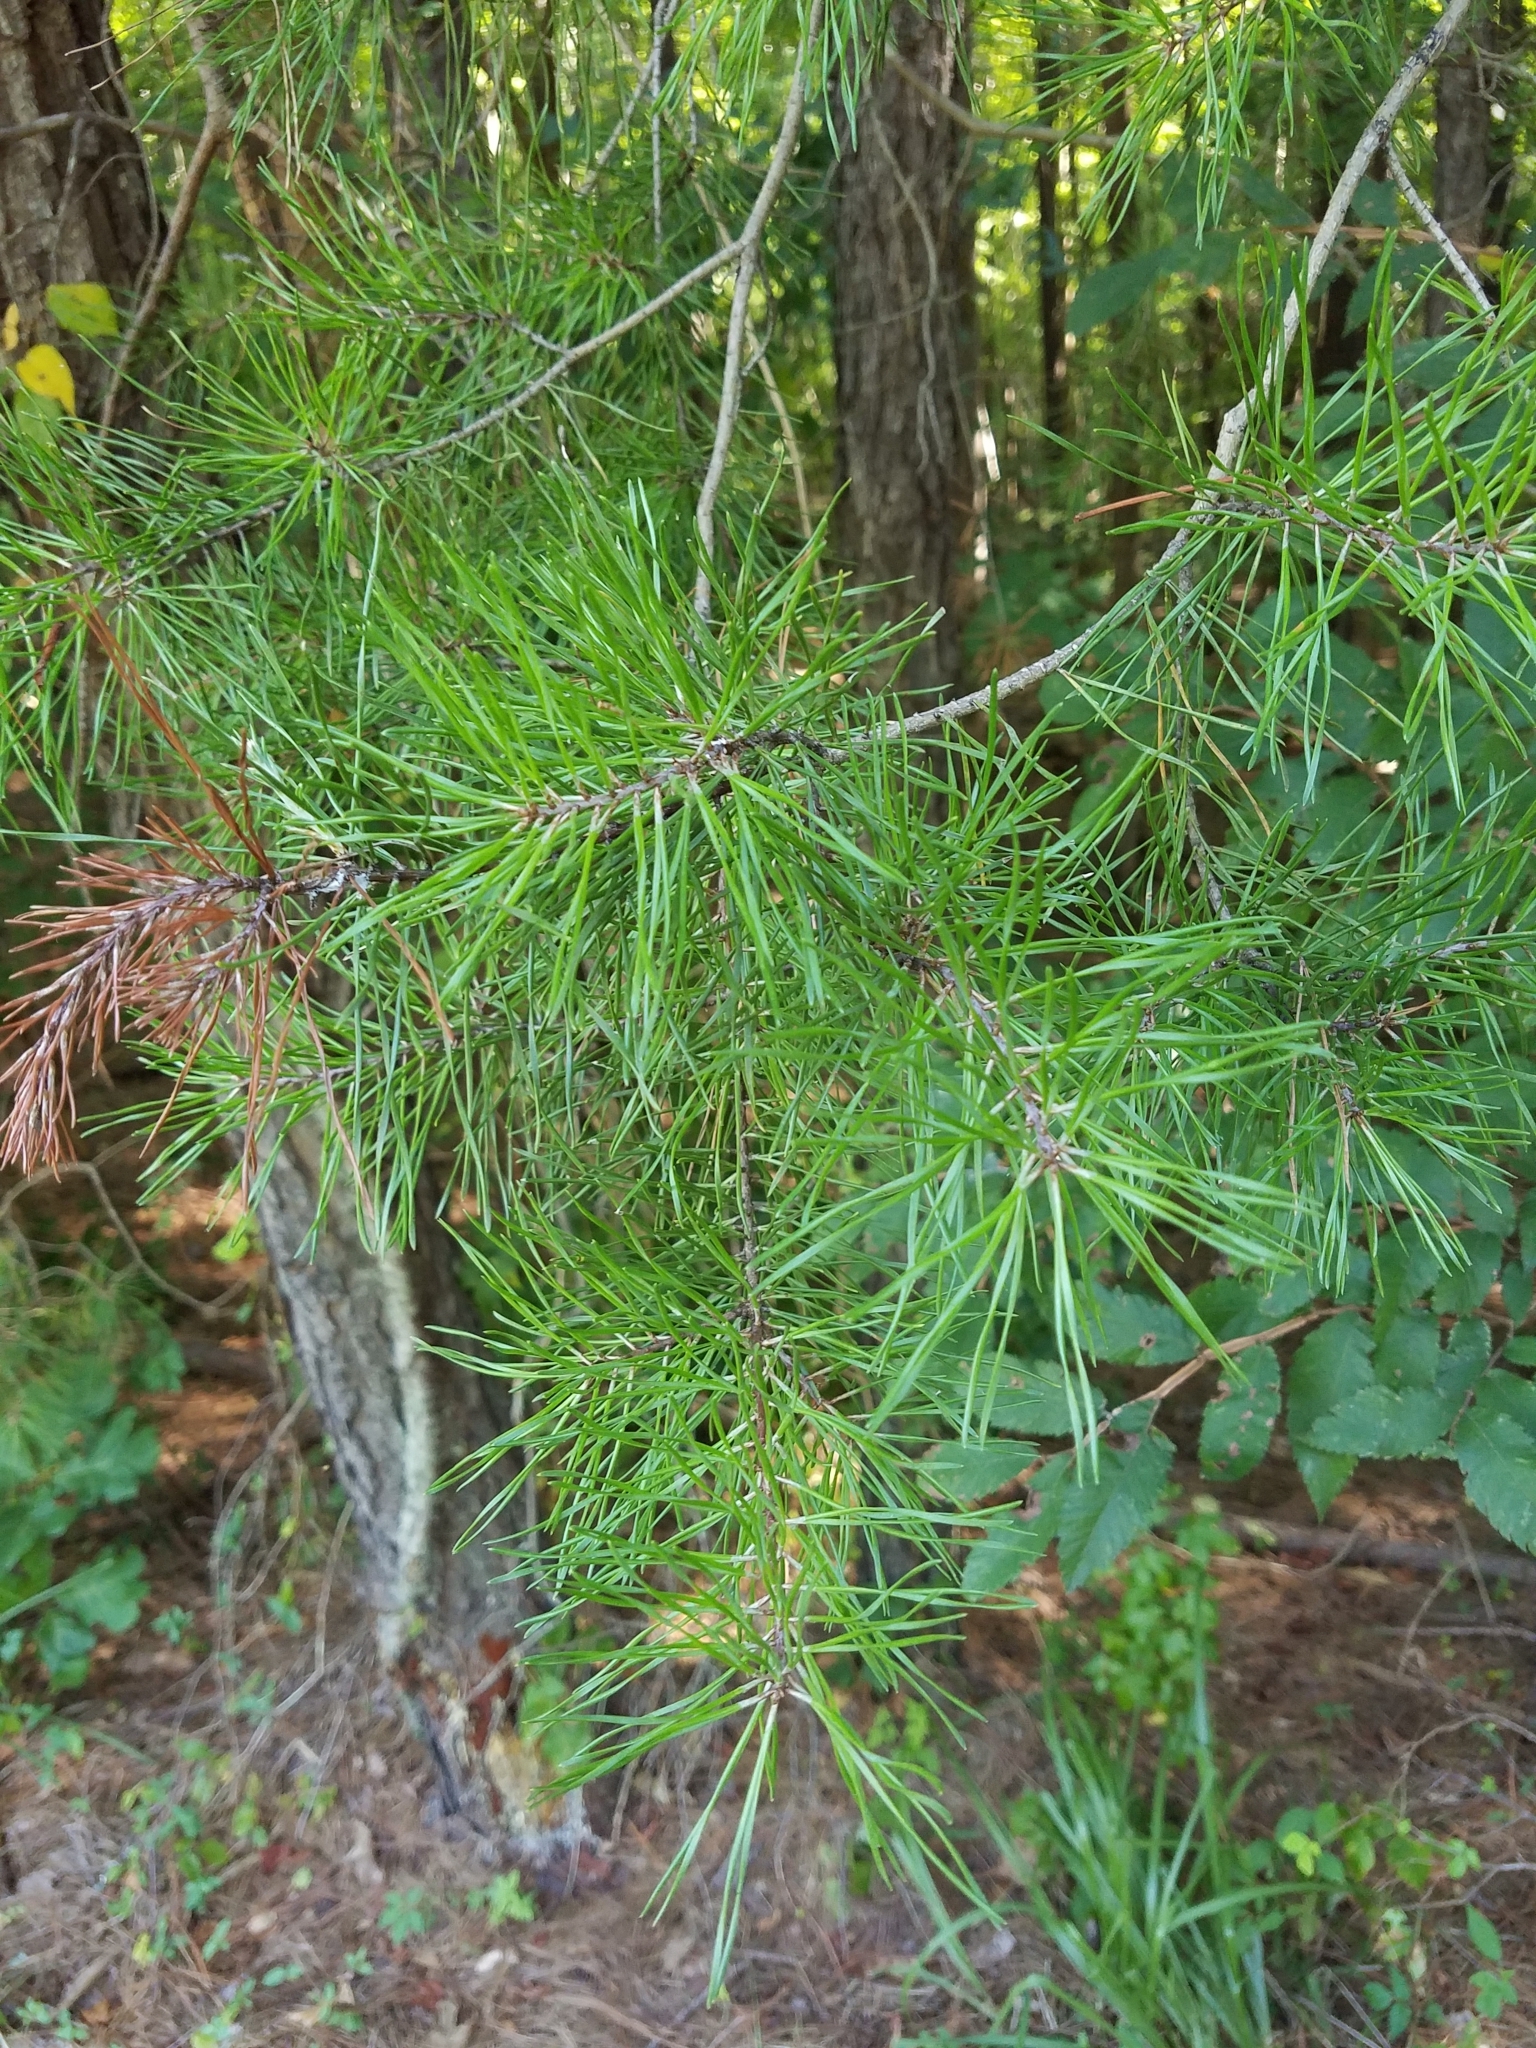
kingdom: Plantae
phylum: Tracheophyta
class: Pinopsida
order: Pinales
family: Pinaceae
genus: Pinus
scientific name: Pinus virginiana
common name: Scrub pine
